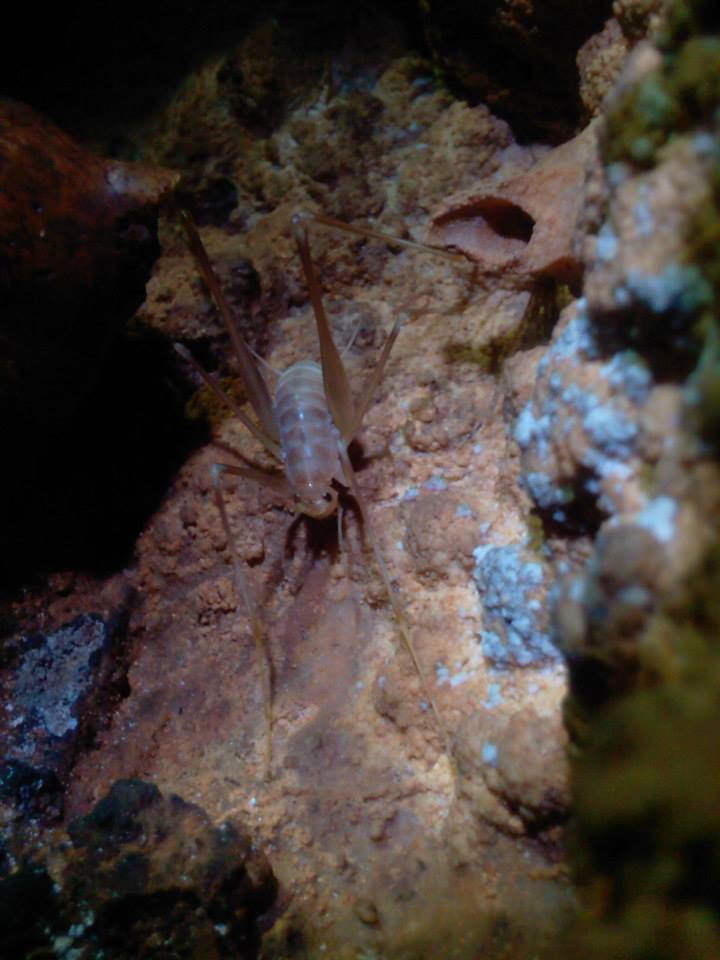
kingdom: Animalia
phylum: Arthropoda
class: Insecta
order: Orthoptera
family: Rhaphidophoridae
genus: Dolichopoda
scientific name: Dolichopoda araneiformis
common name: Spidery cave-cricket
